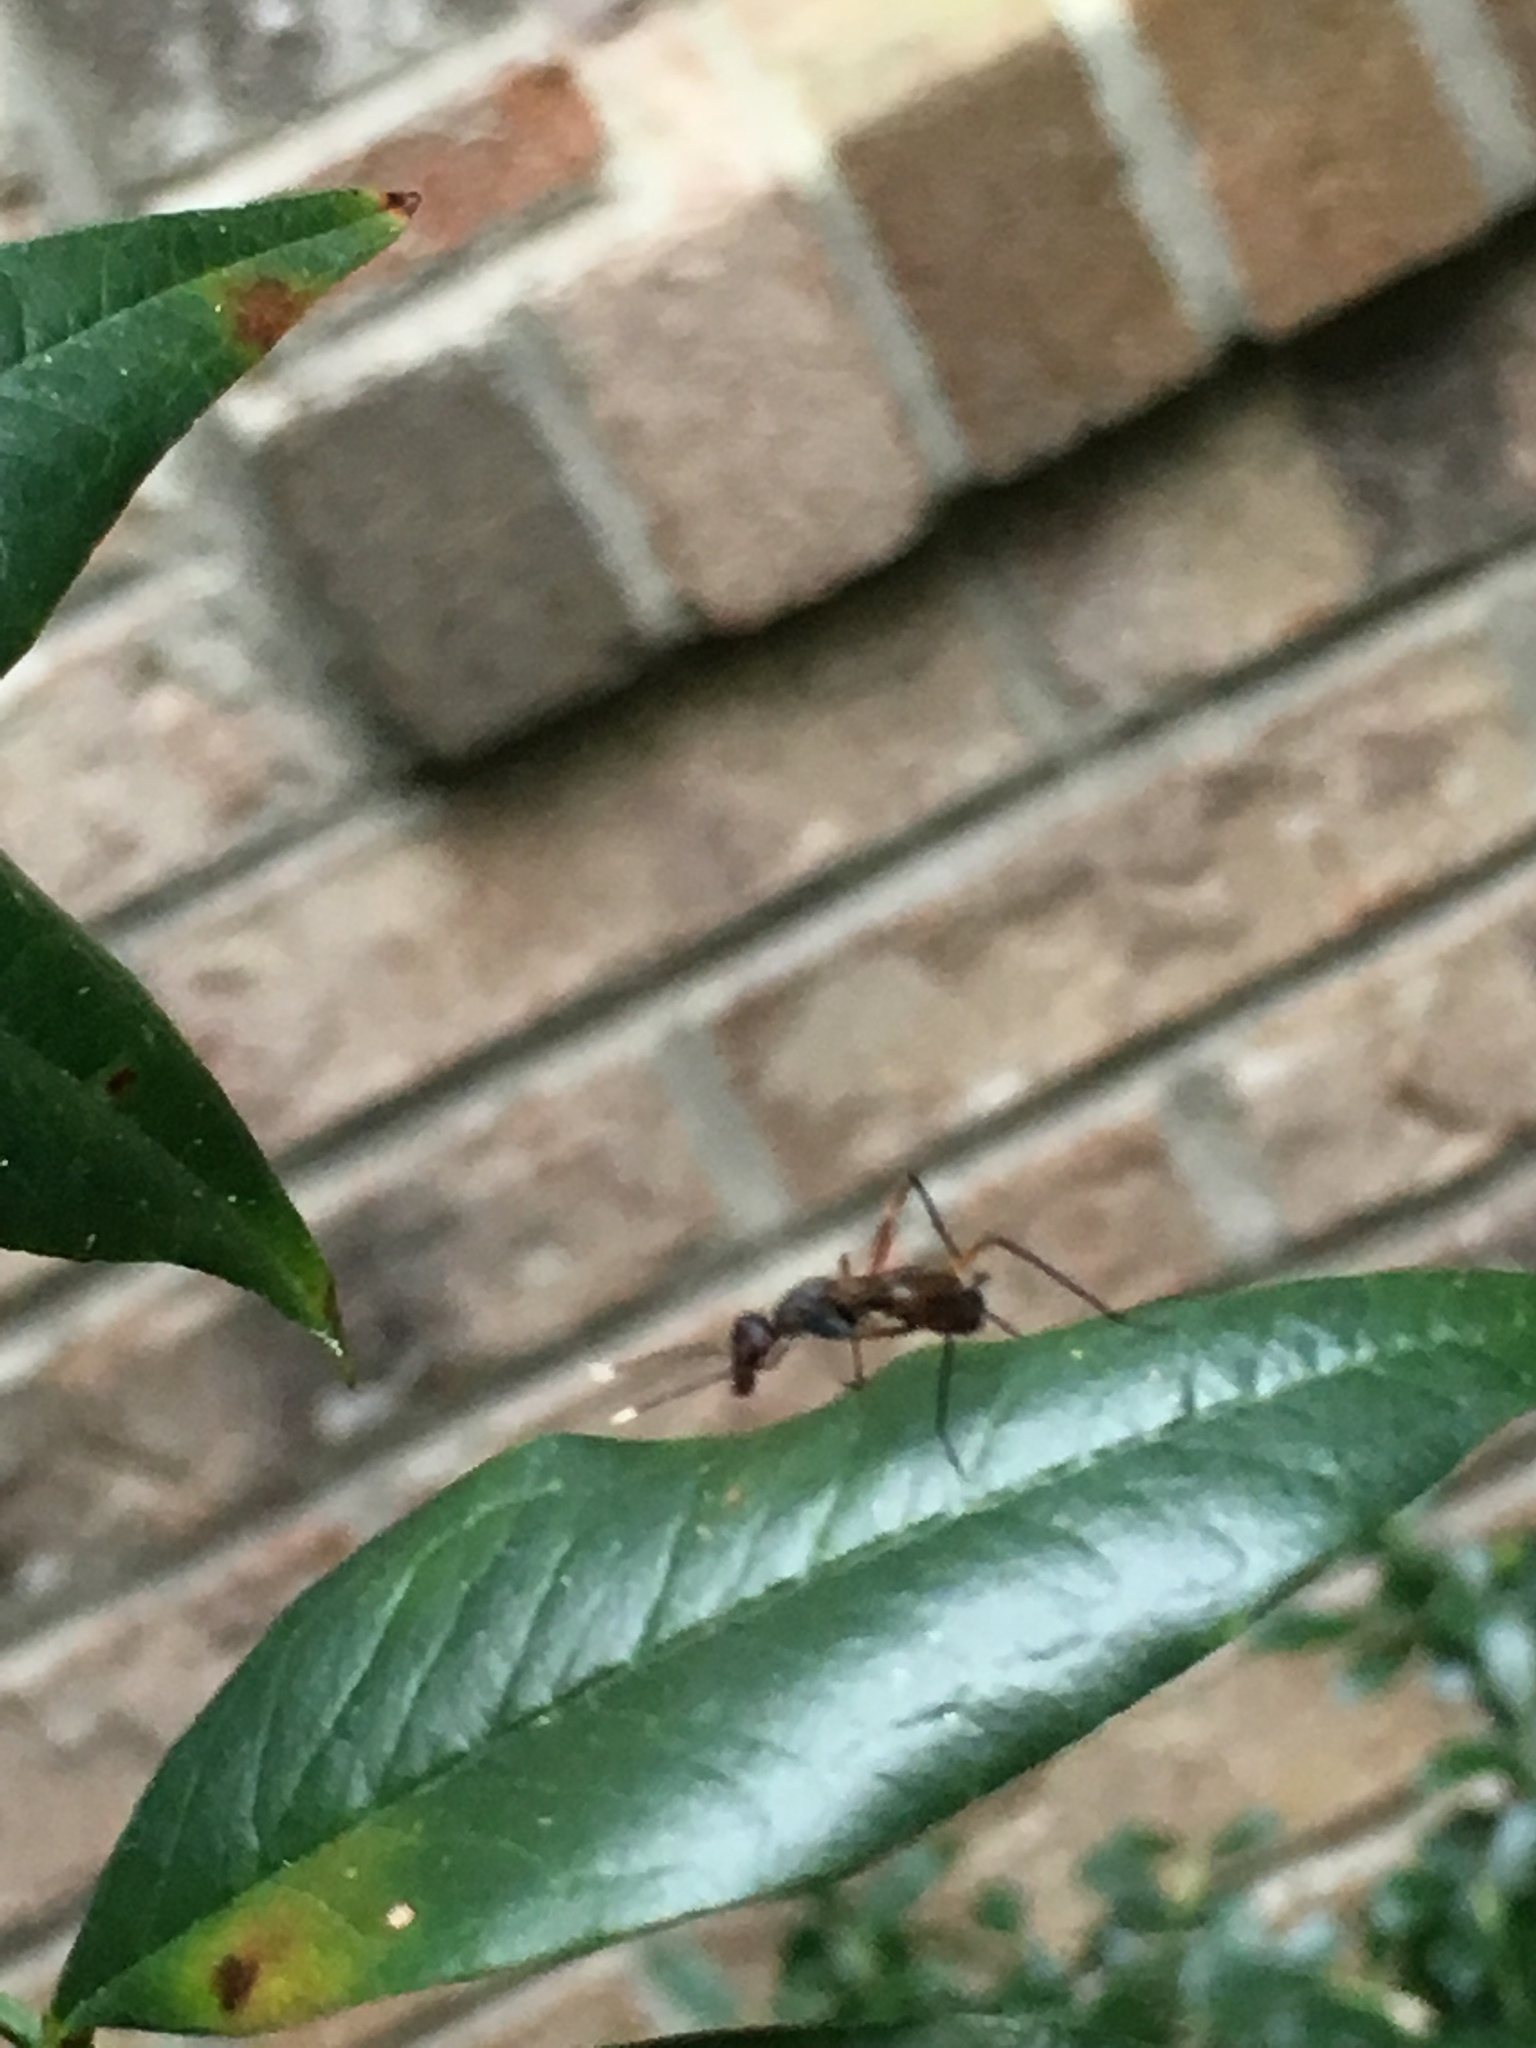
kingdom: Animalia
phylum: Arthropoda
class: Insecta
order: Diptera
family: Micropezidae
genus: Taeniaptera
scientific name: Taeniaptera trivittata
